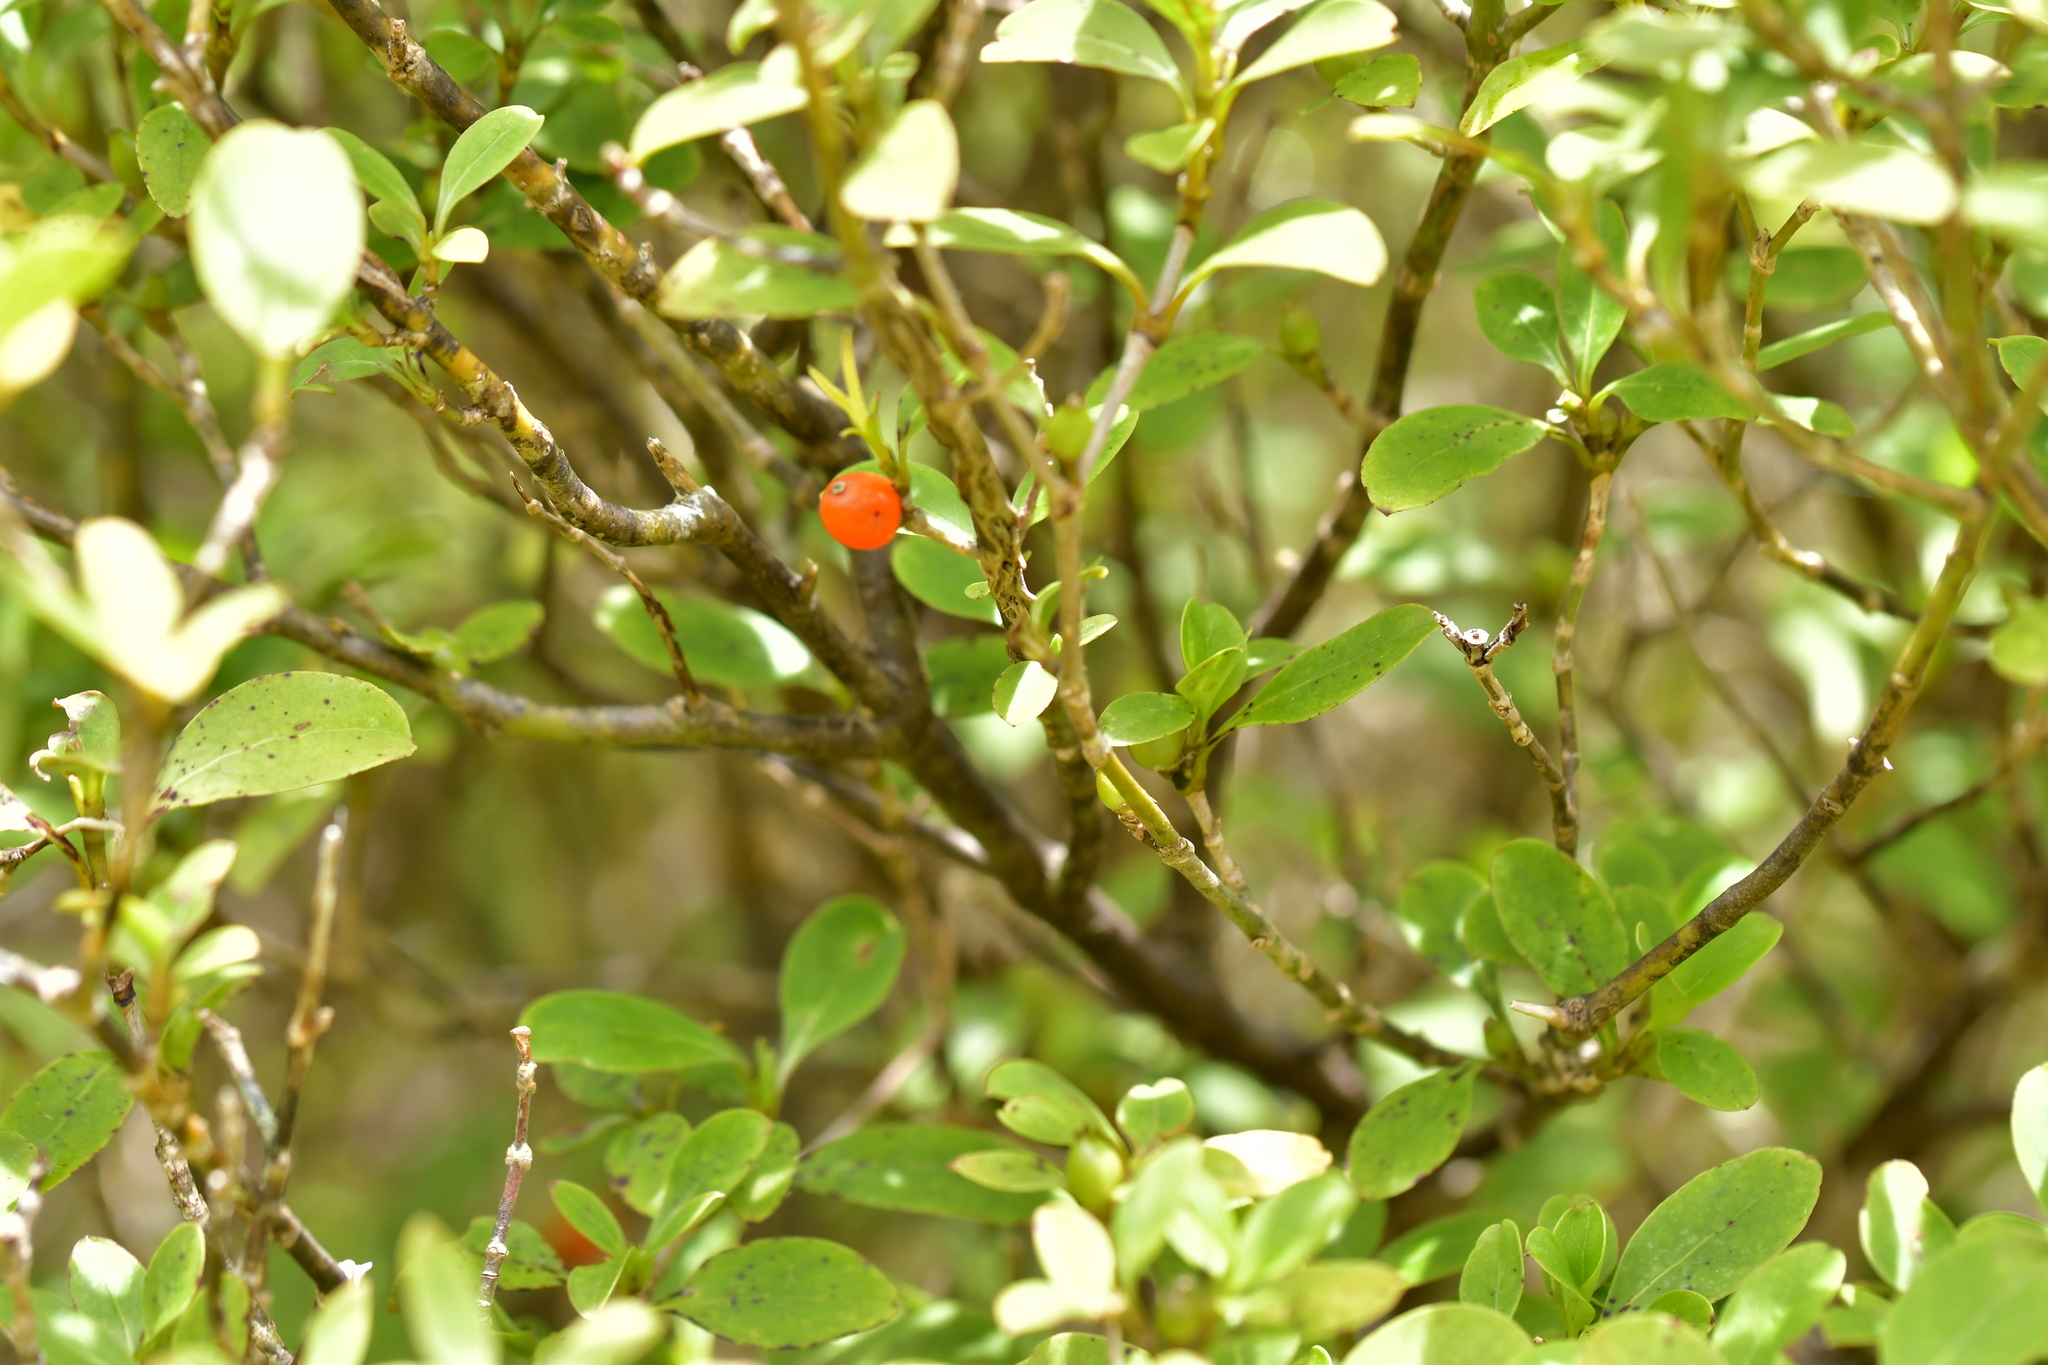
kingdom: Plantae
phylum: Tracheophyta
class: Magnoliopsida
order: Gentianales
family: Rubiaceae
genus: Coprosma
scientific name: Coprosma foetidissima
